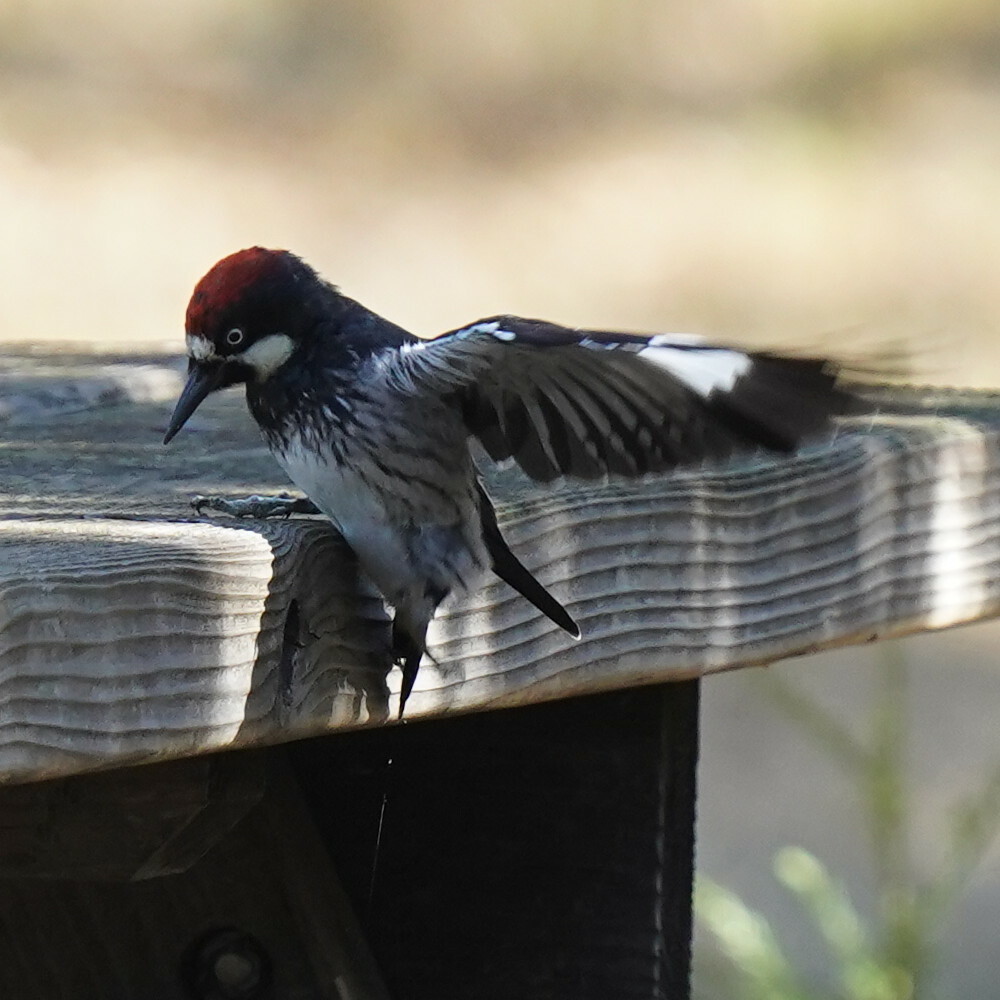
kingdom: Animalia
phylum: Chordata
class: Aves
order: Piciformes
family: Picidae
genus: Melanerpes
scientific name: Melanerpes formicivorus
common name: Acorn woodpecker
